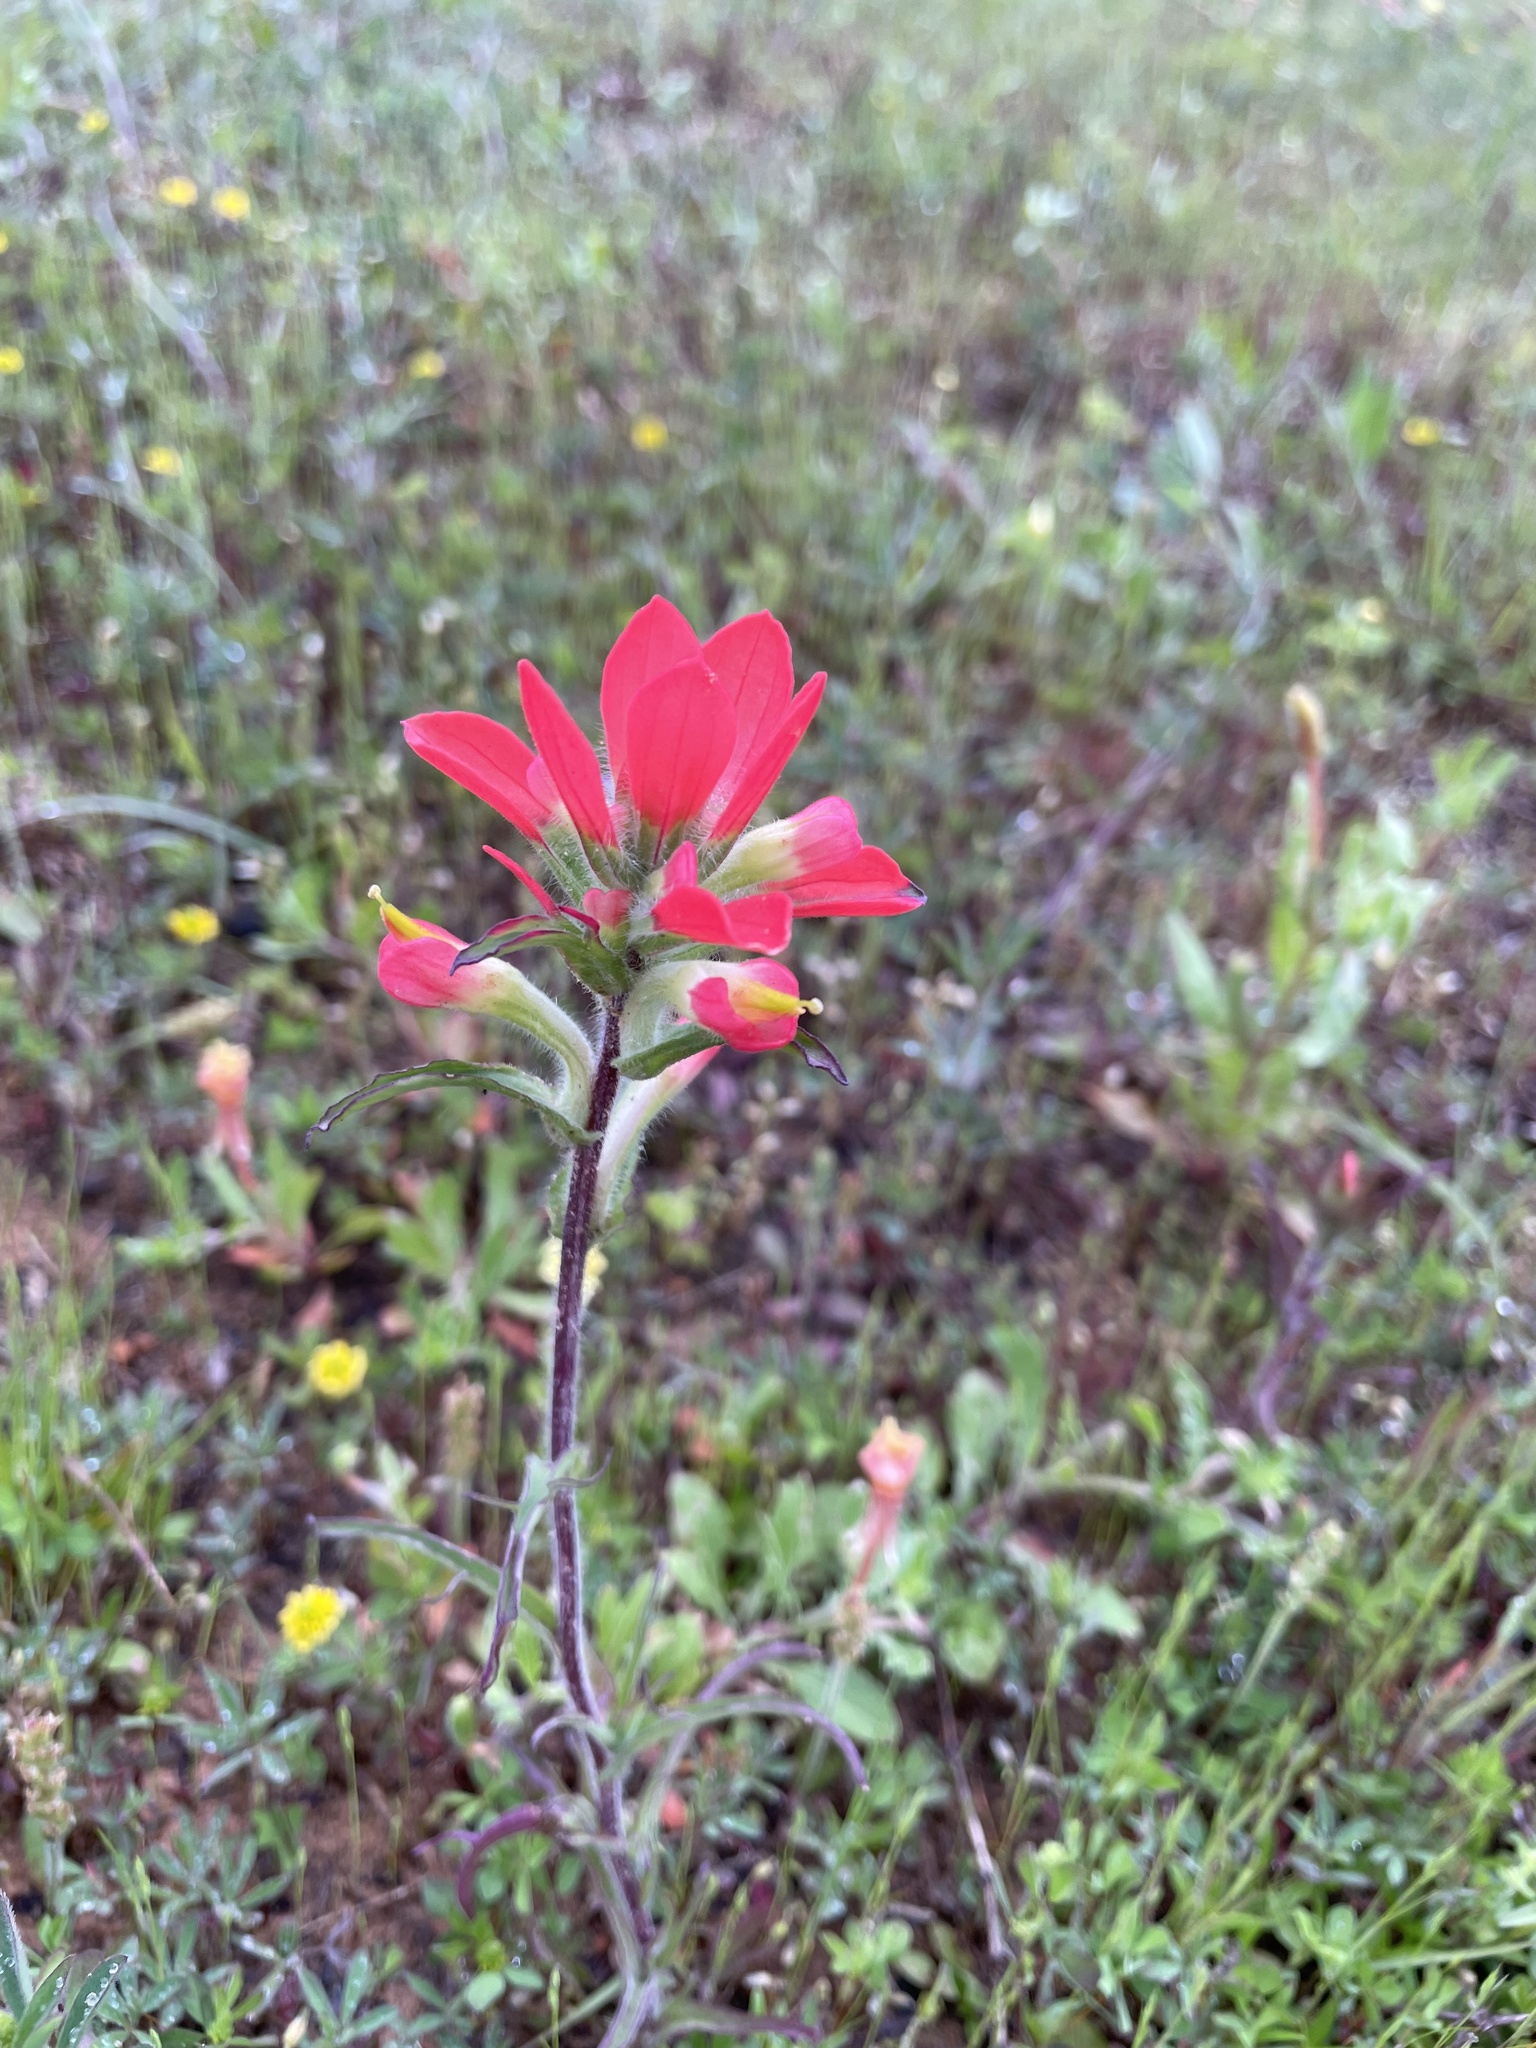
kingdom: Plantae
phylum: Tracheophyta
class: Magnoliopsida
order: Lamiales
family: Orobanchaceae
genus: Castilleja
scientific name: Castilleja indivisa
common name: Texas paintbrush
